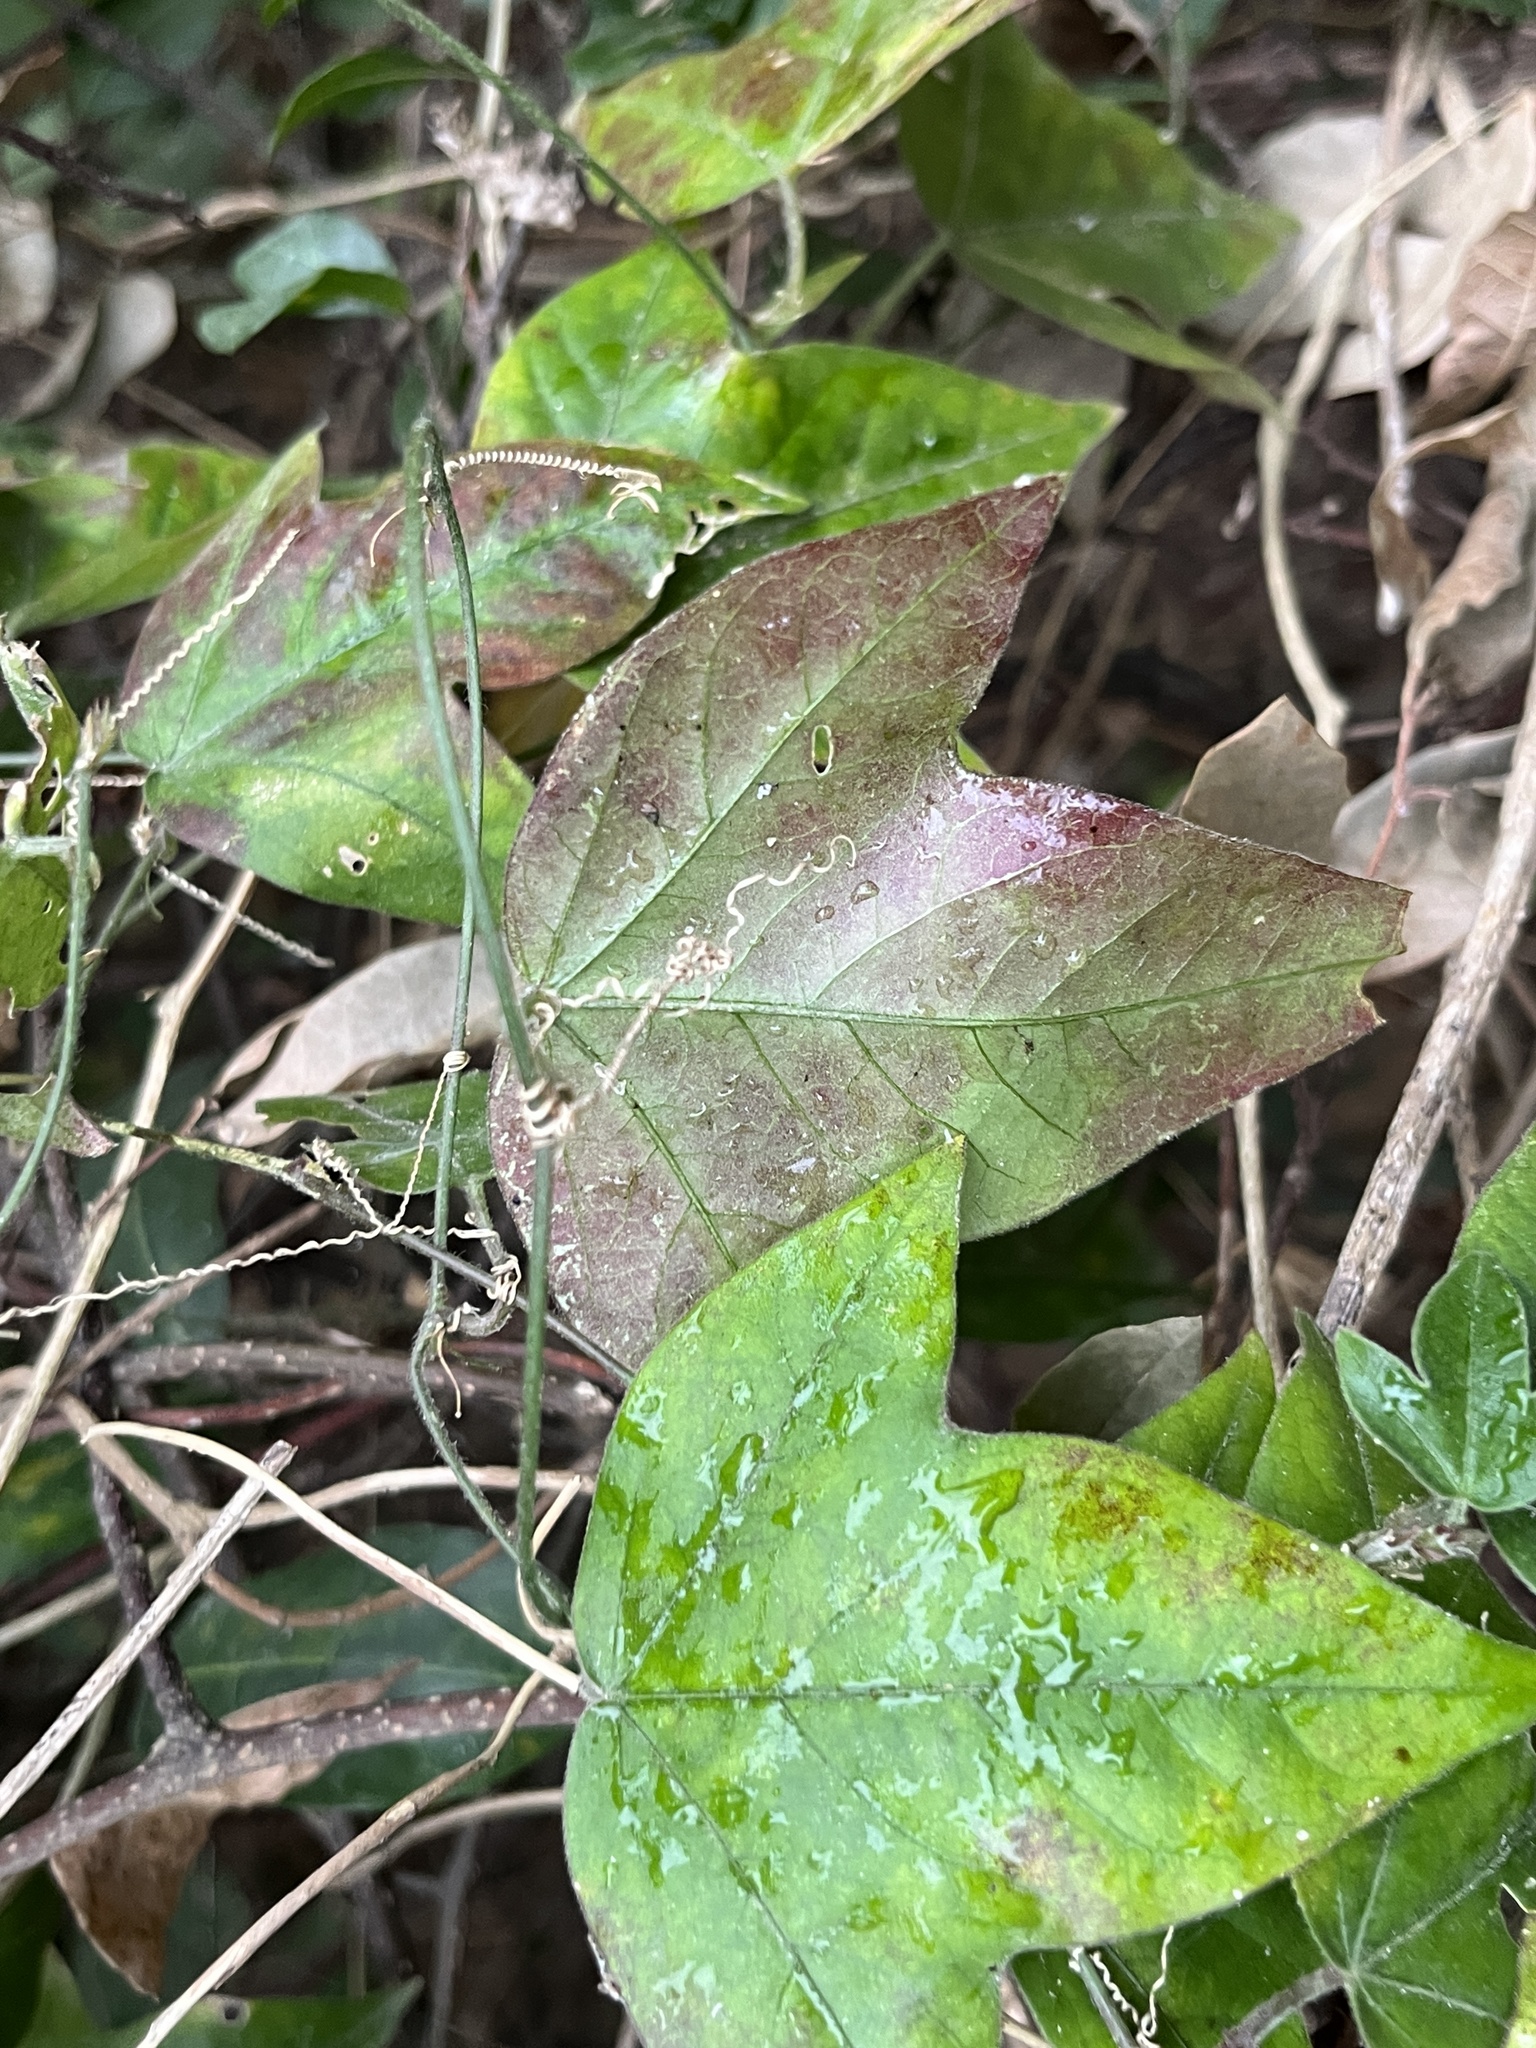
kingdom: Plantae
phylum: Tracheophyta
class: Magnoliopsida
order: Malpighiales
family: Passifloraceae
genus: Passiflora
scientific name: Passiflora suberosa
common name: Wild passionfruit
